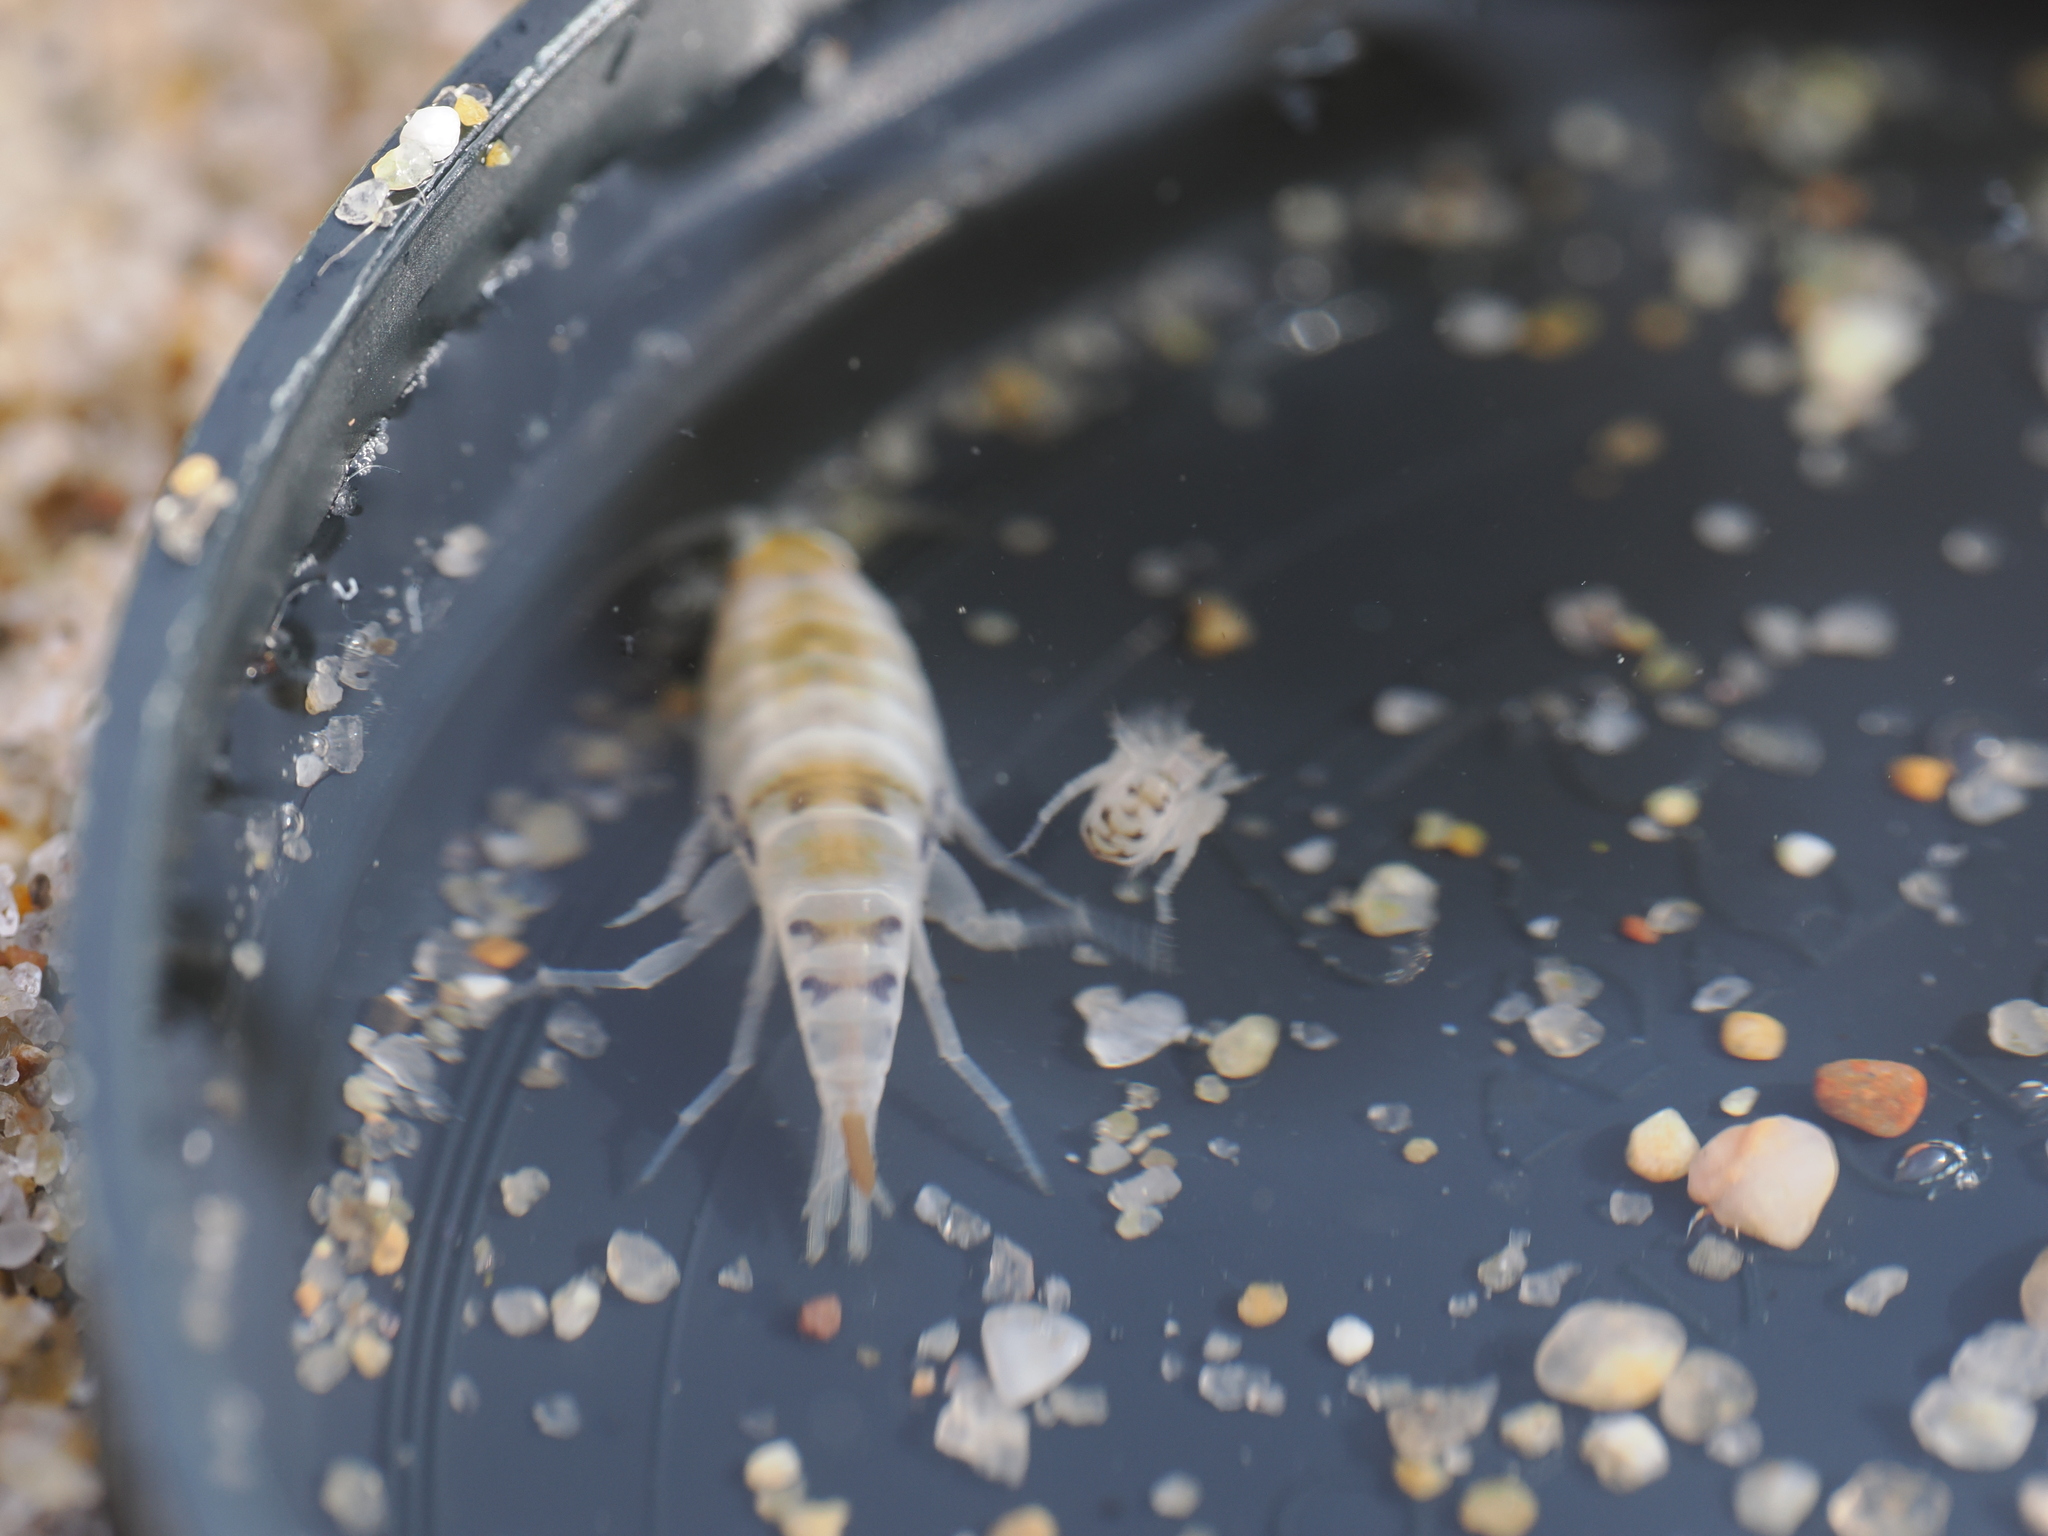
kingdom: Animalia
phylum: Arthropoda
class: Malacostraca
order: Amphipoda
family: Talitridae
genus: Megalorchestia
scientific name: Megalorchestia columbiana
